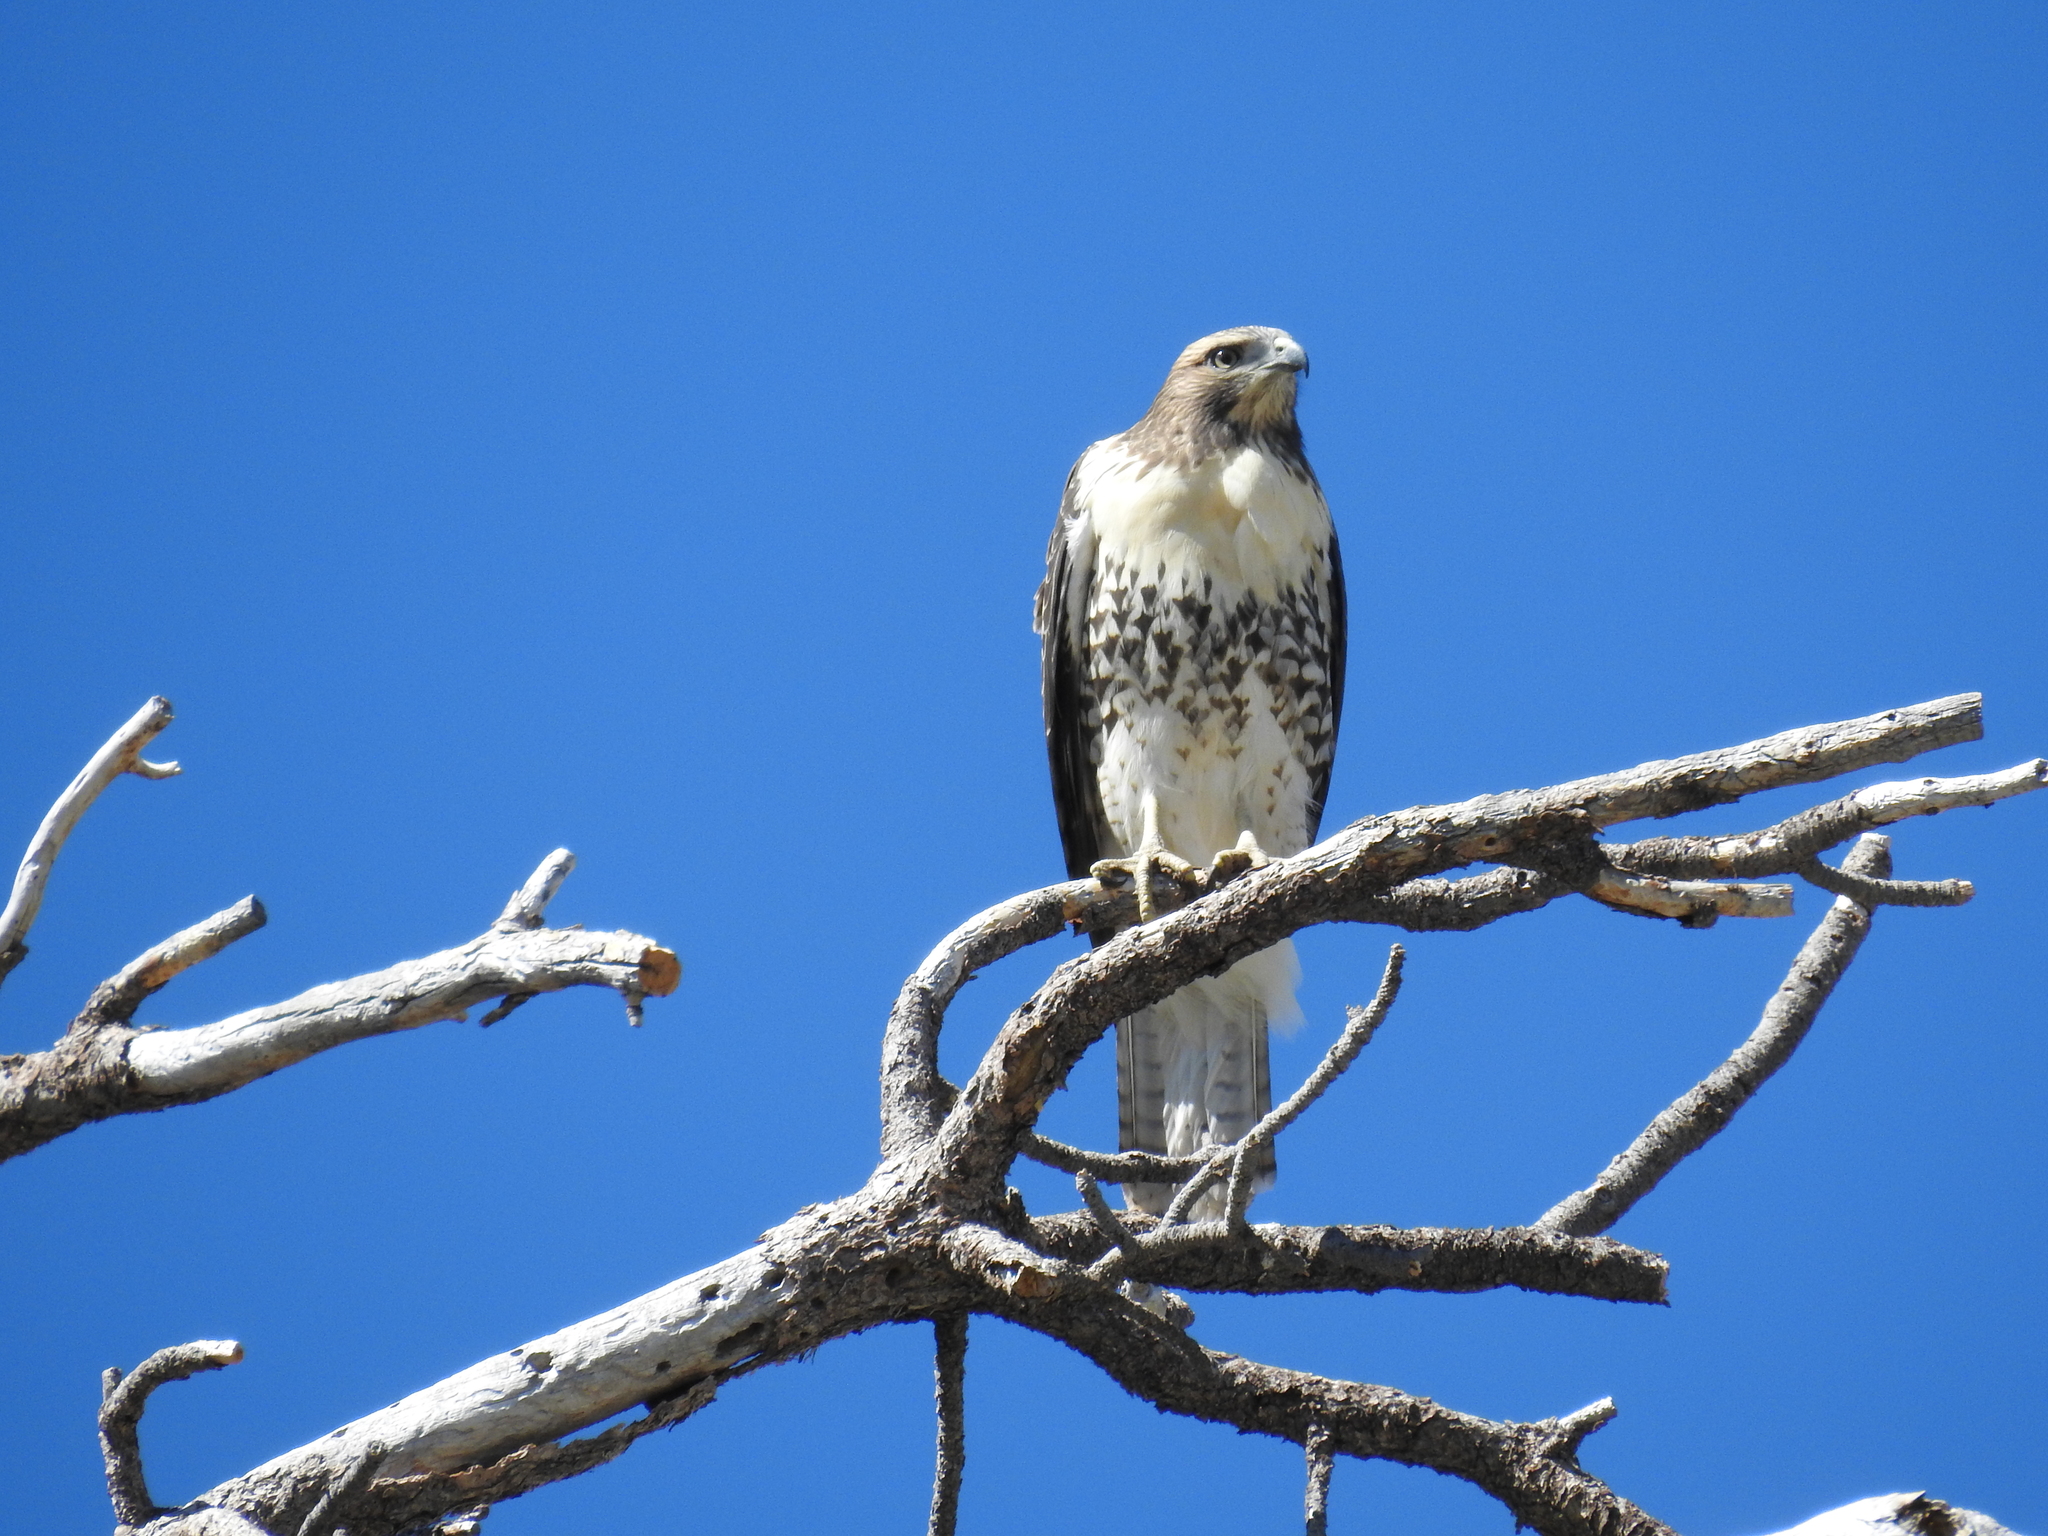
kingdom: Animalia
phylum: Chordata
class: Aves
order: Accipitriformes
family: Accipitridae
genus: Buteo
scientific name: Buteo jamaicensis
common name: Red-tailed hawk
